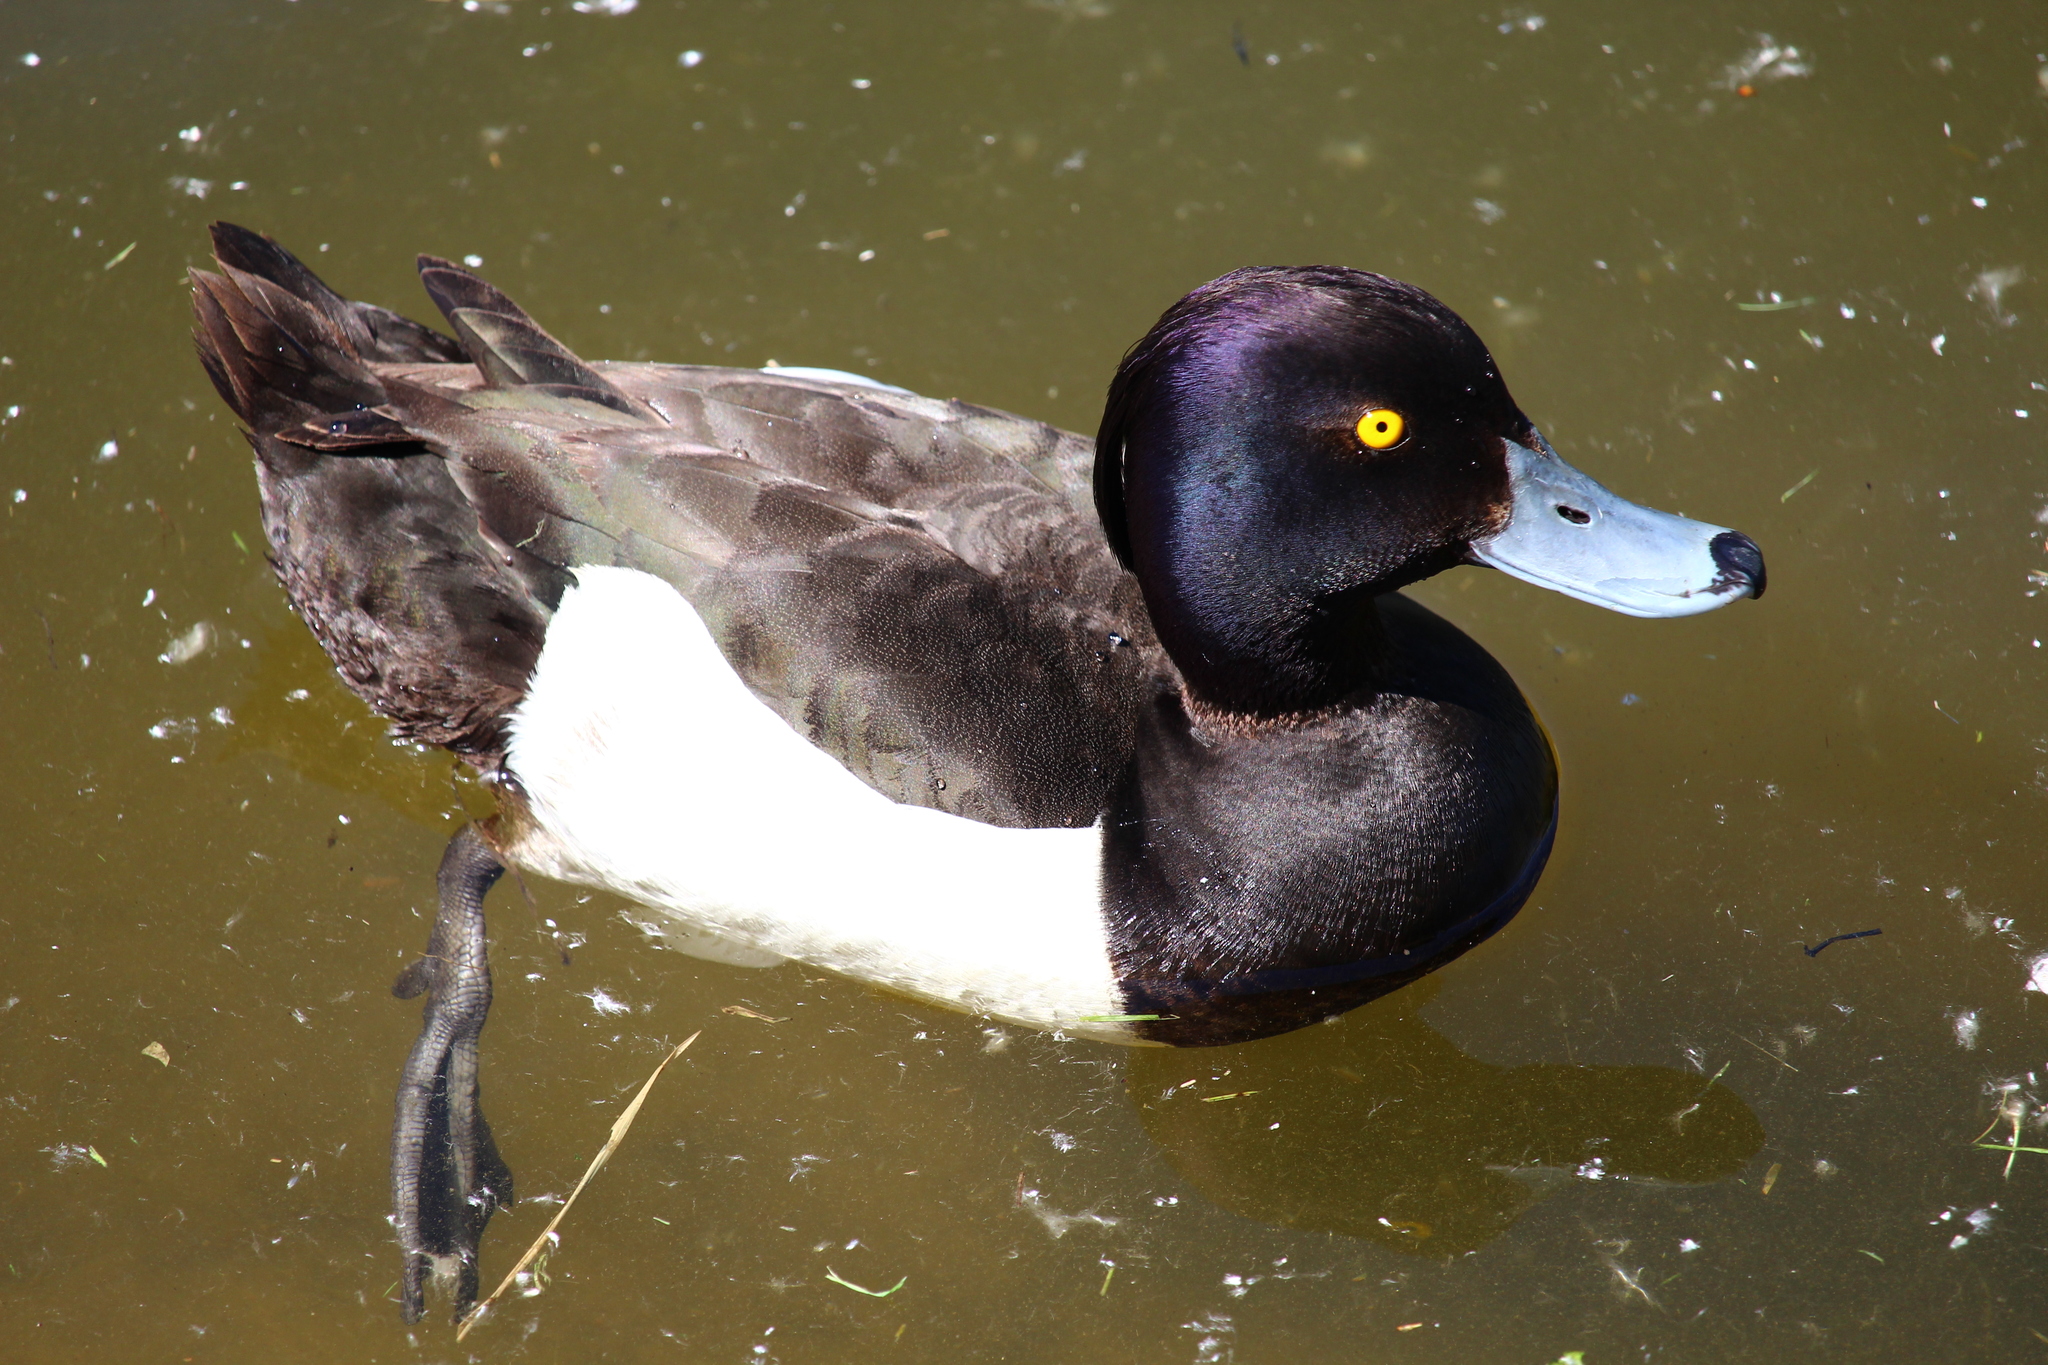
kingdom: Animalia
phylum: Chordata
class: Aves
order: Anseriformes
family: Anatidae
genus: Aythya
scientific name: Aythya fuligula
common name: Tufted duck
